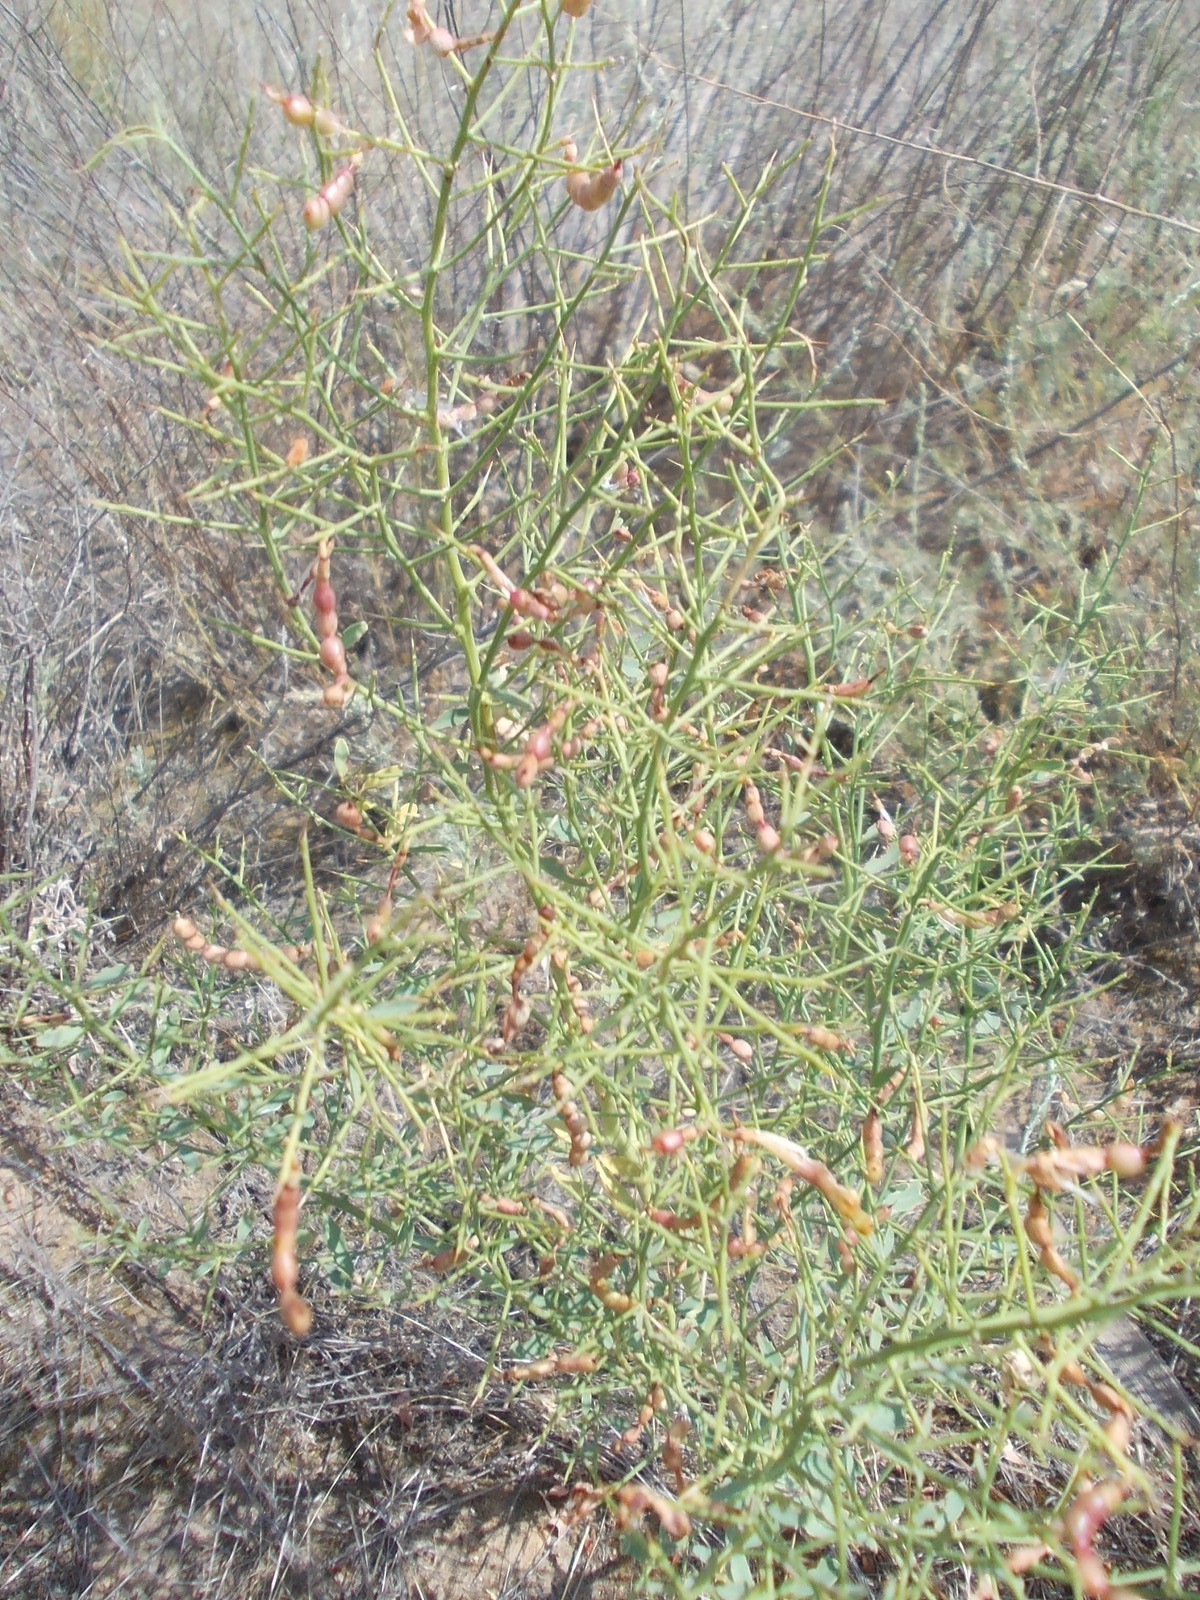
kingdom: Plantae
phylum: Tracheophyta
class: Magnoliopsida
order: Fabales
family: Fabaceae
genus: Alhagi
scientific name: Alhagi pseudalhagi
